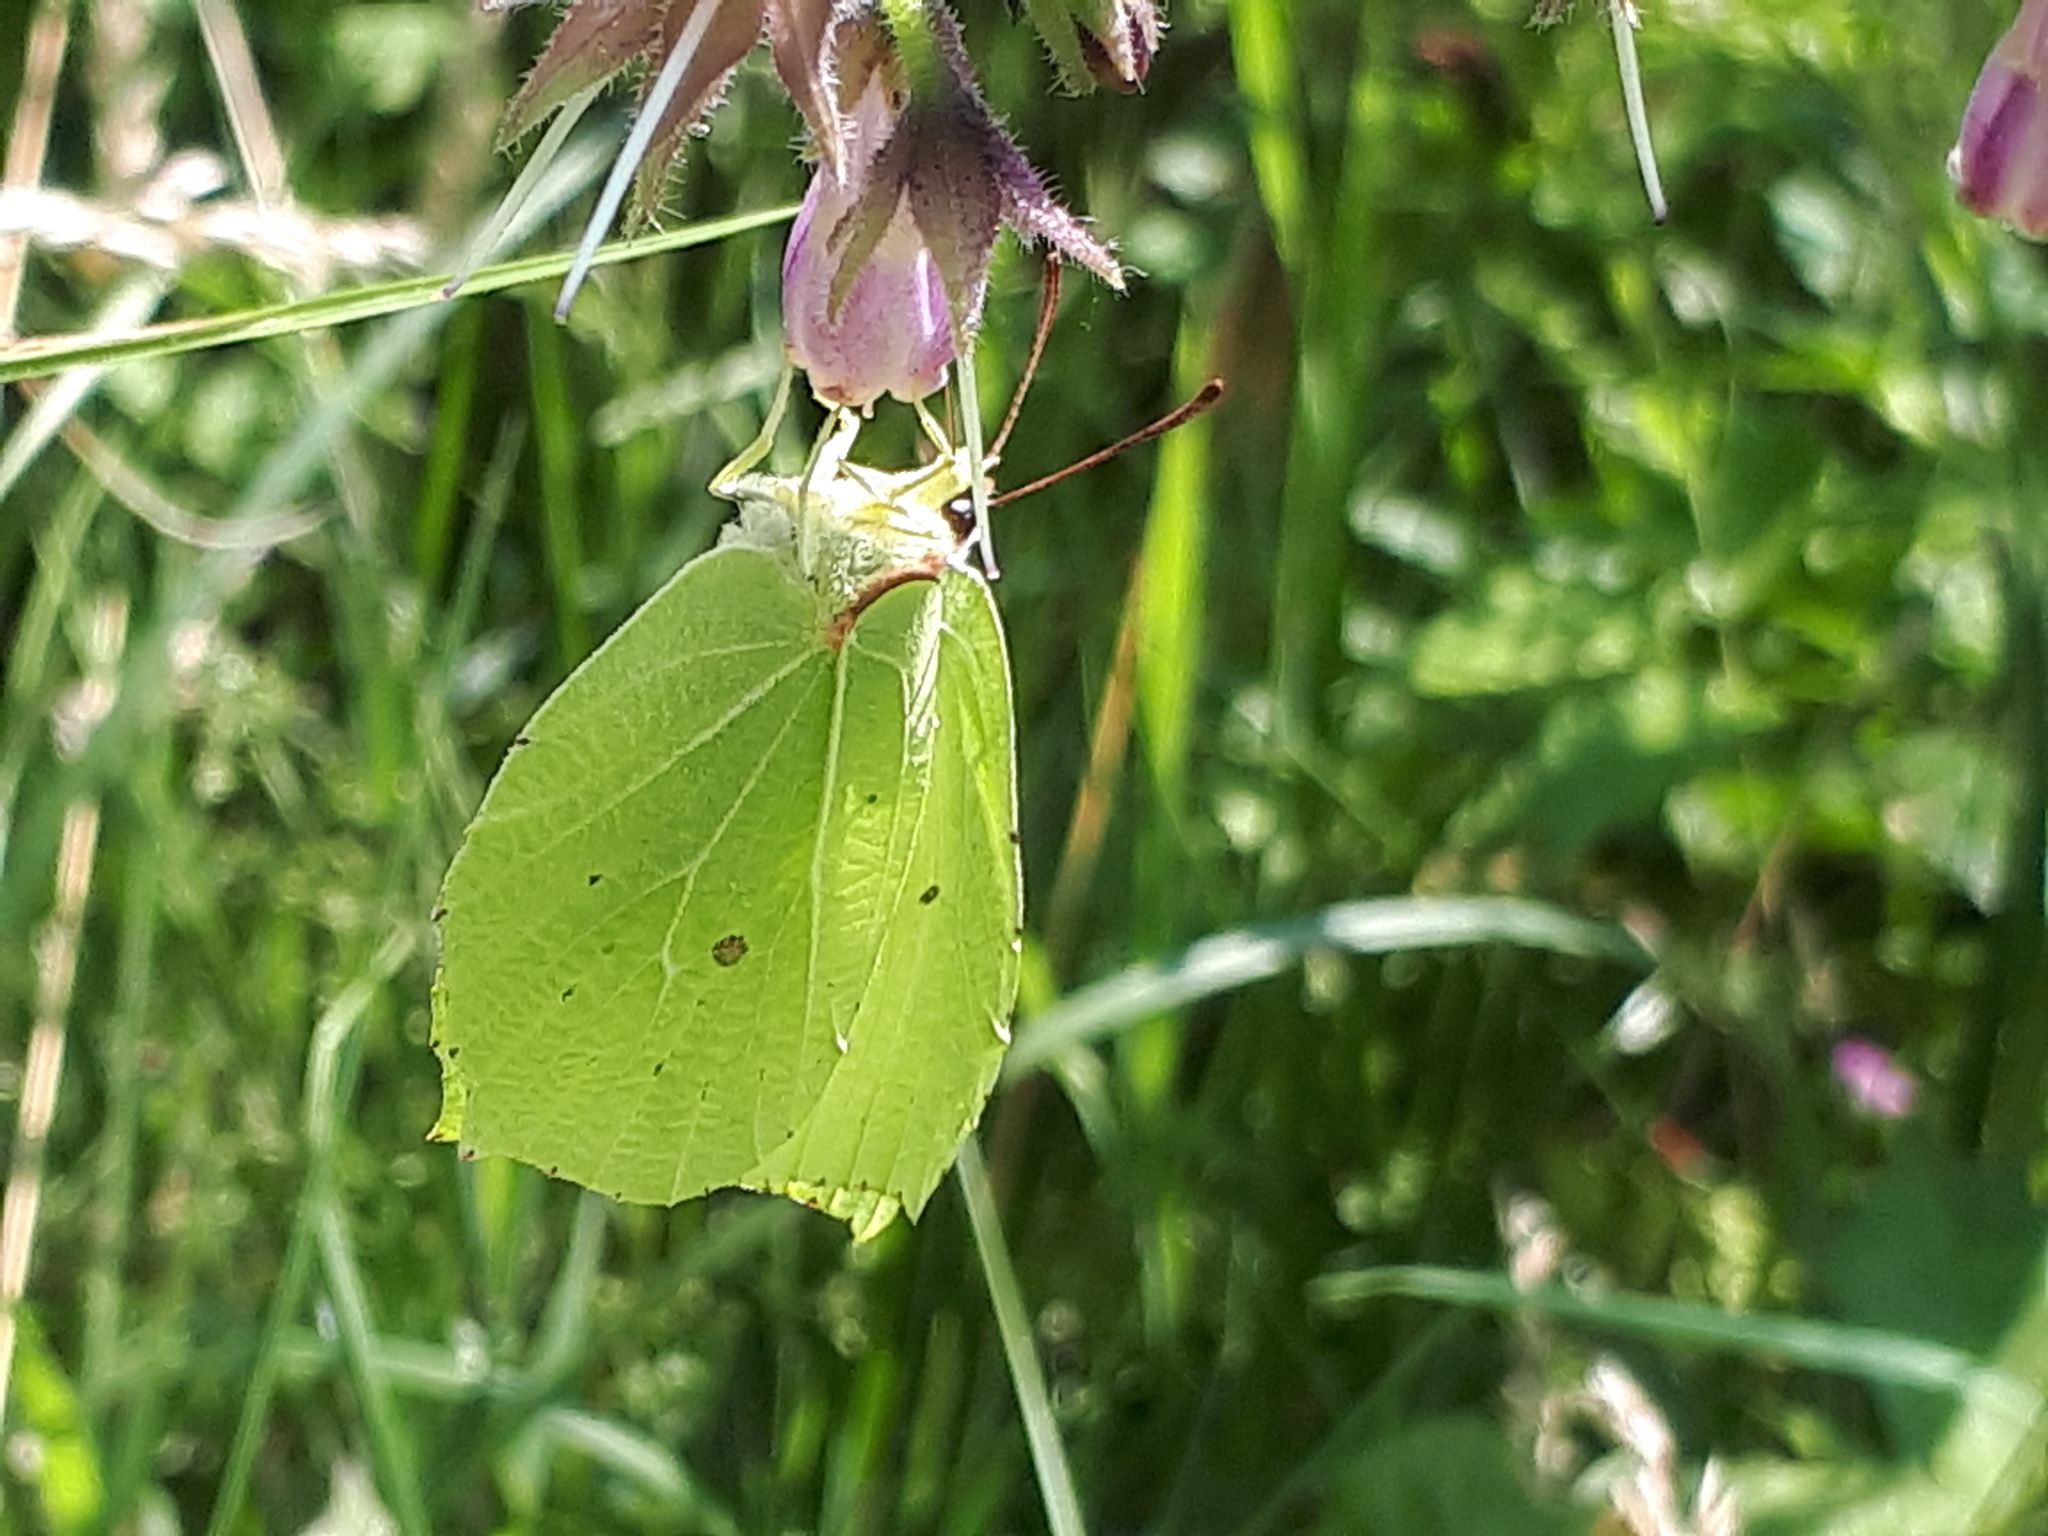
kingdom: Animalia
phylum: Arthropoda
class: Insecta
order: Lepidoptera
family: Pieridae
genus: Gonepteryx
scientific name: Gonepteryx rhamni
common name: Brimstone
